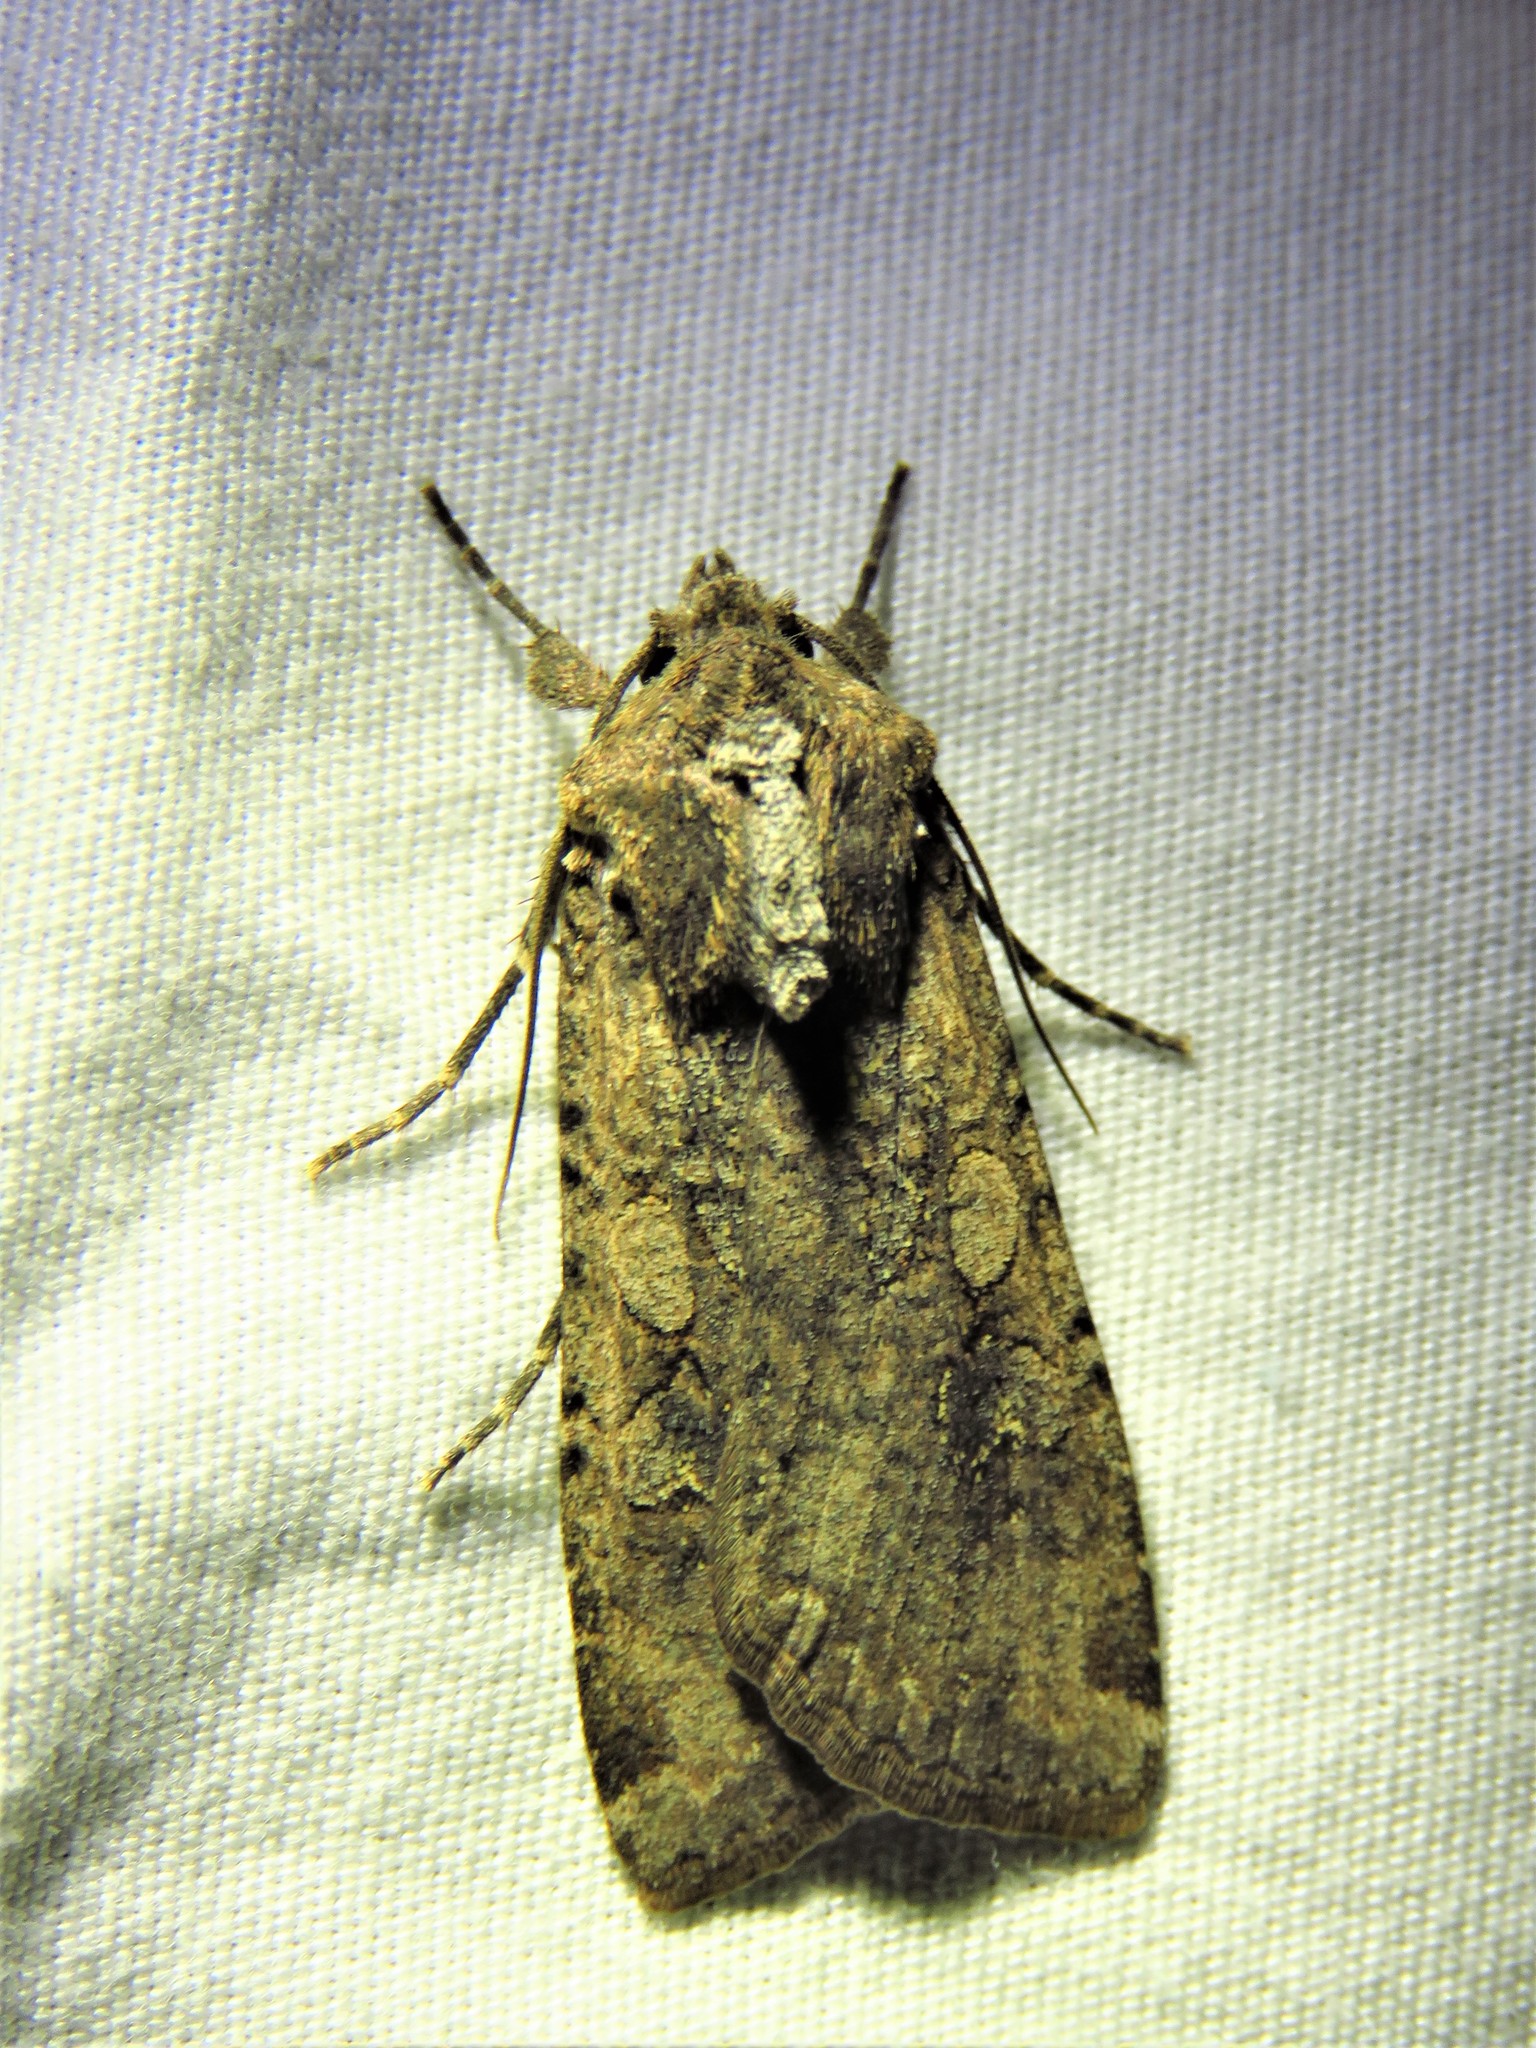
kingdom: Animalia
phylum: Arthropoda
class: Insecta
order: Lepidoptera
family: Noctuidae
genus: Peridroma
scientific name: Peridroma saucia
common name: Pearly underwing
